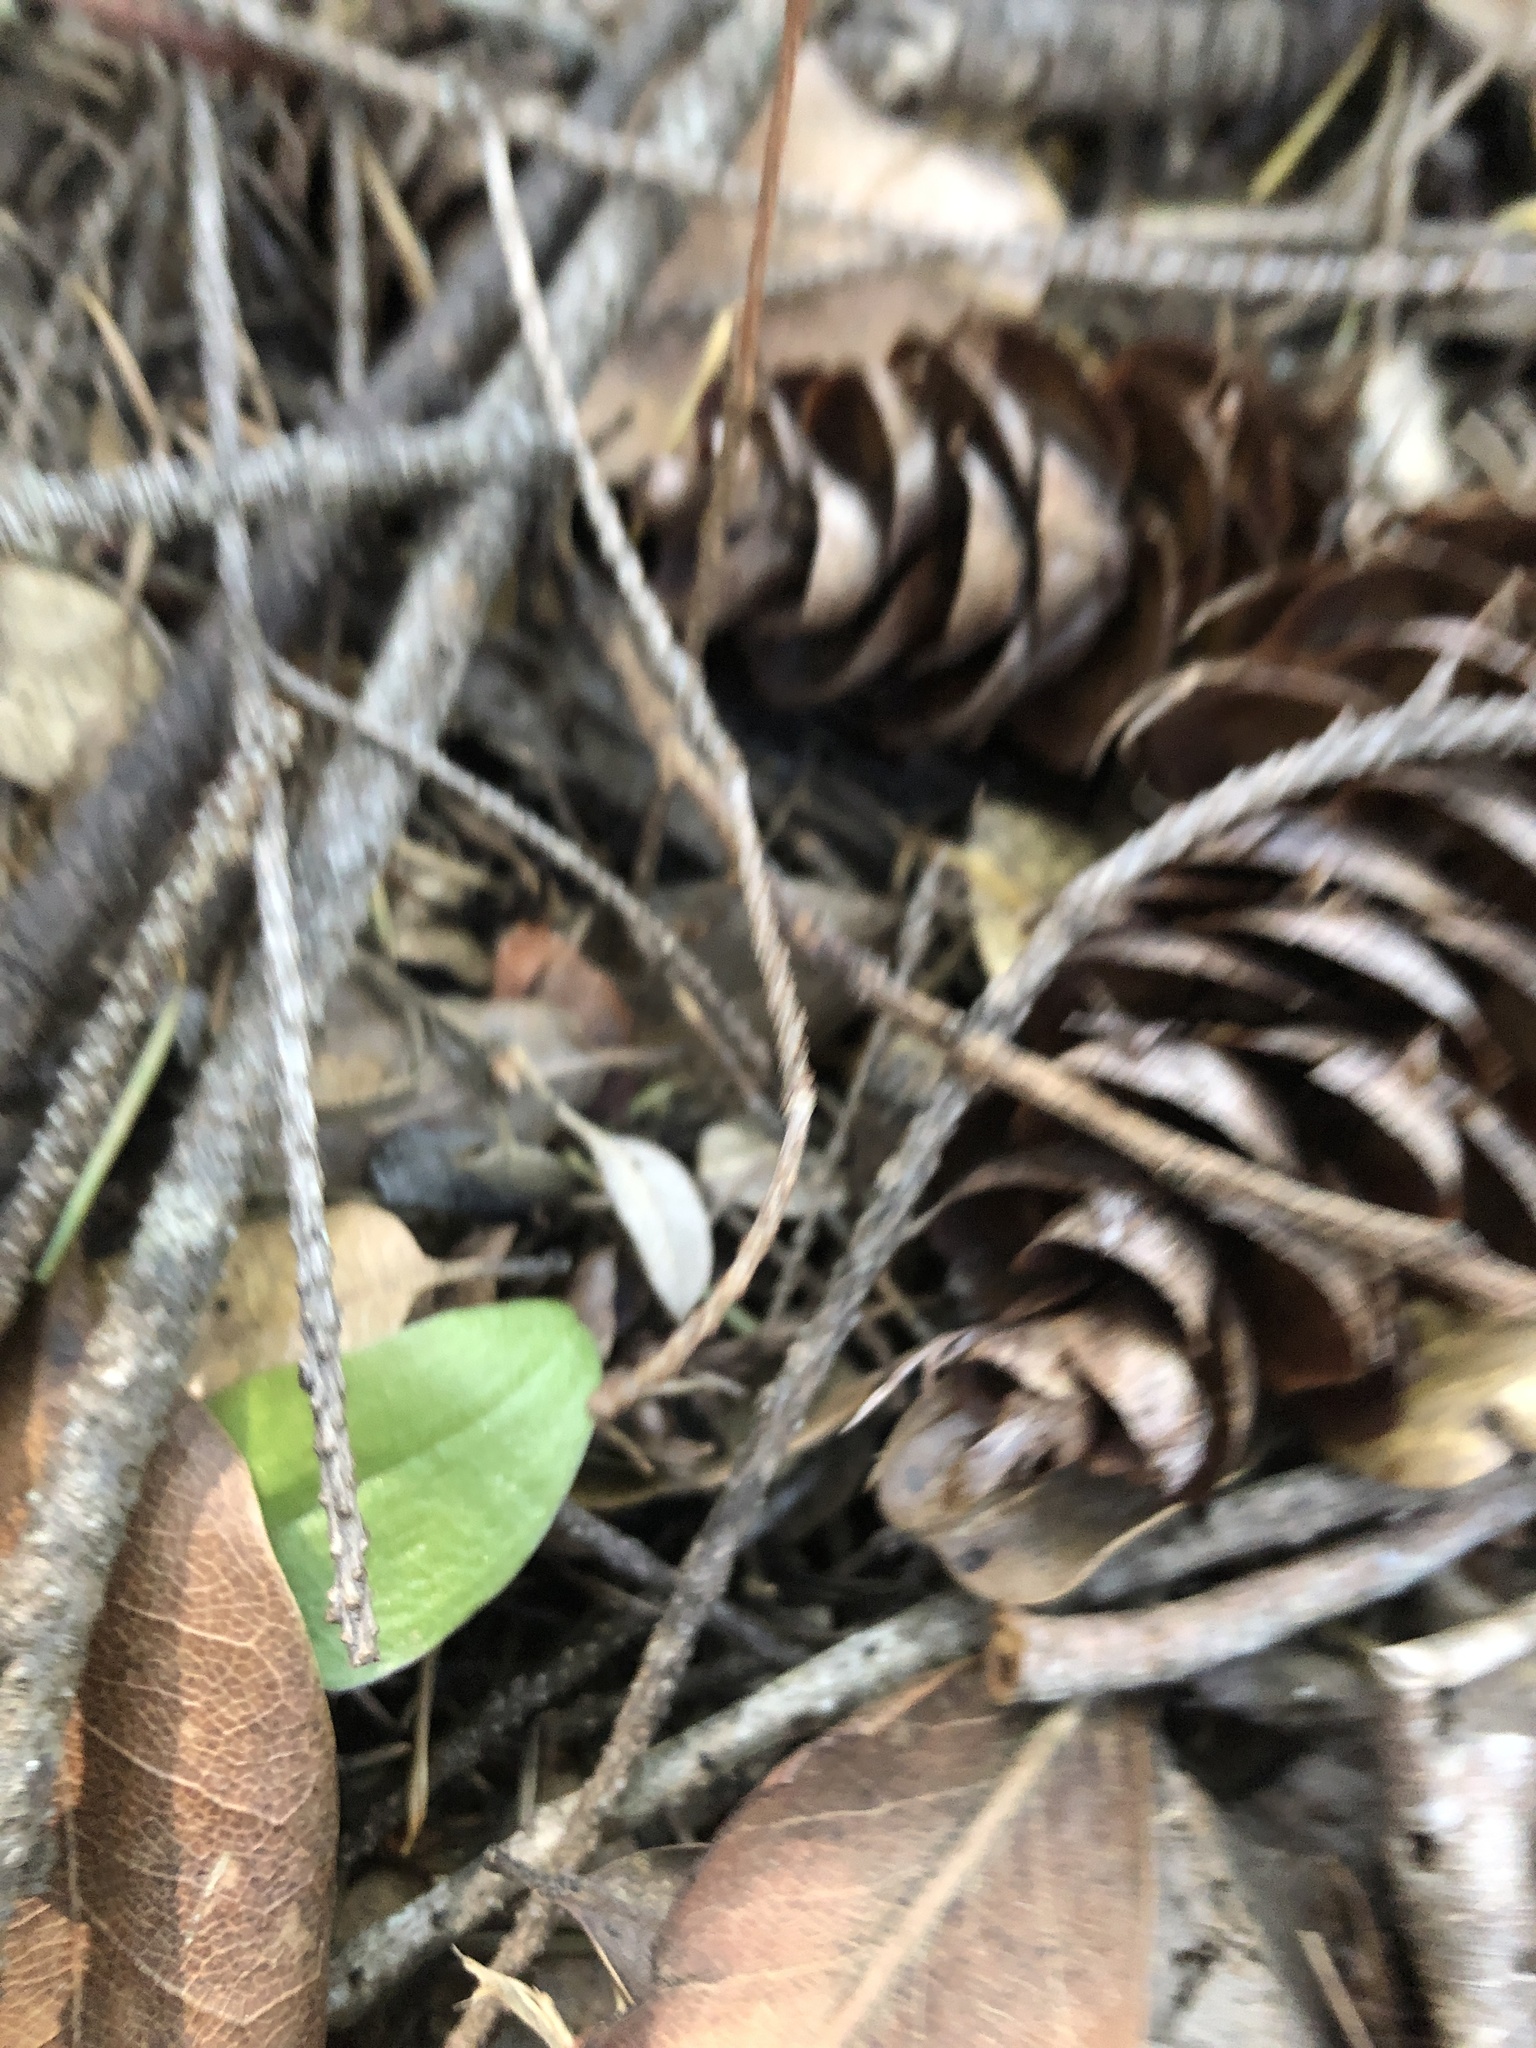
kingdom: Plantae
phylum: Tracheophyta
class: Liliopsida
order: Asparagales
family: Orchidaceae
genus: Calypso
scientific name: Calypso bulbosa
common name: Calypso
